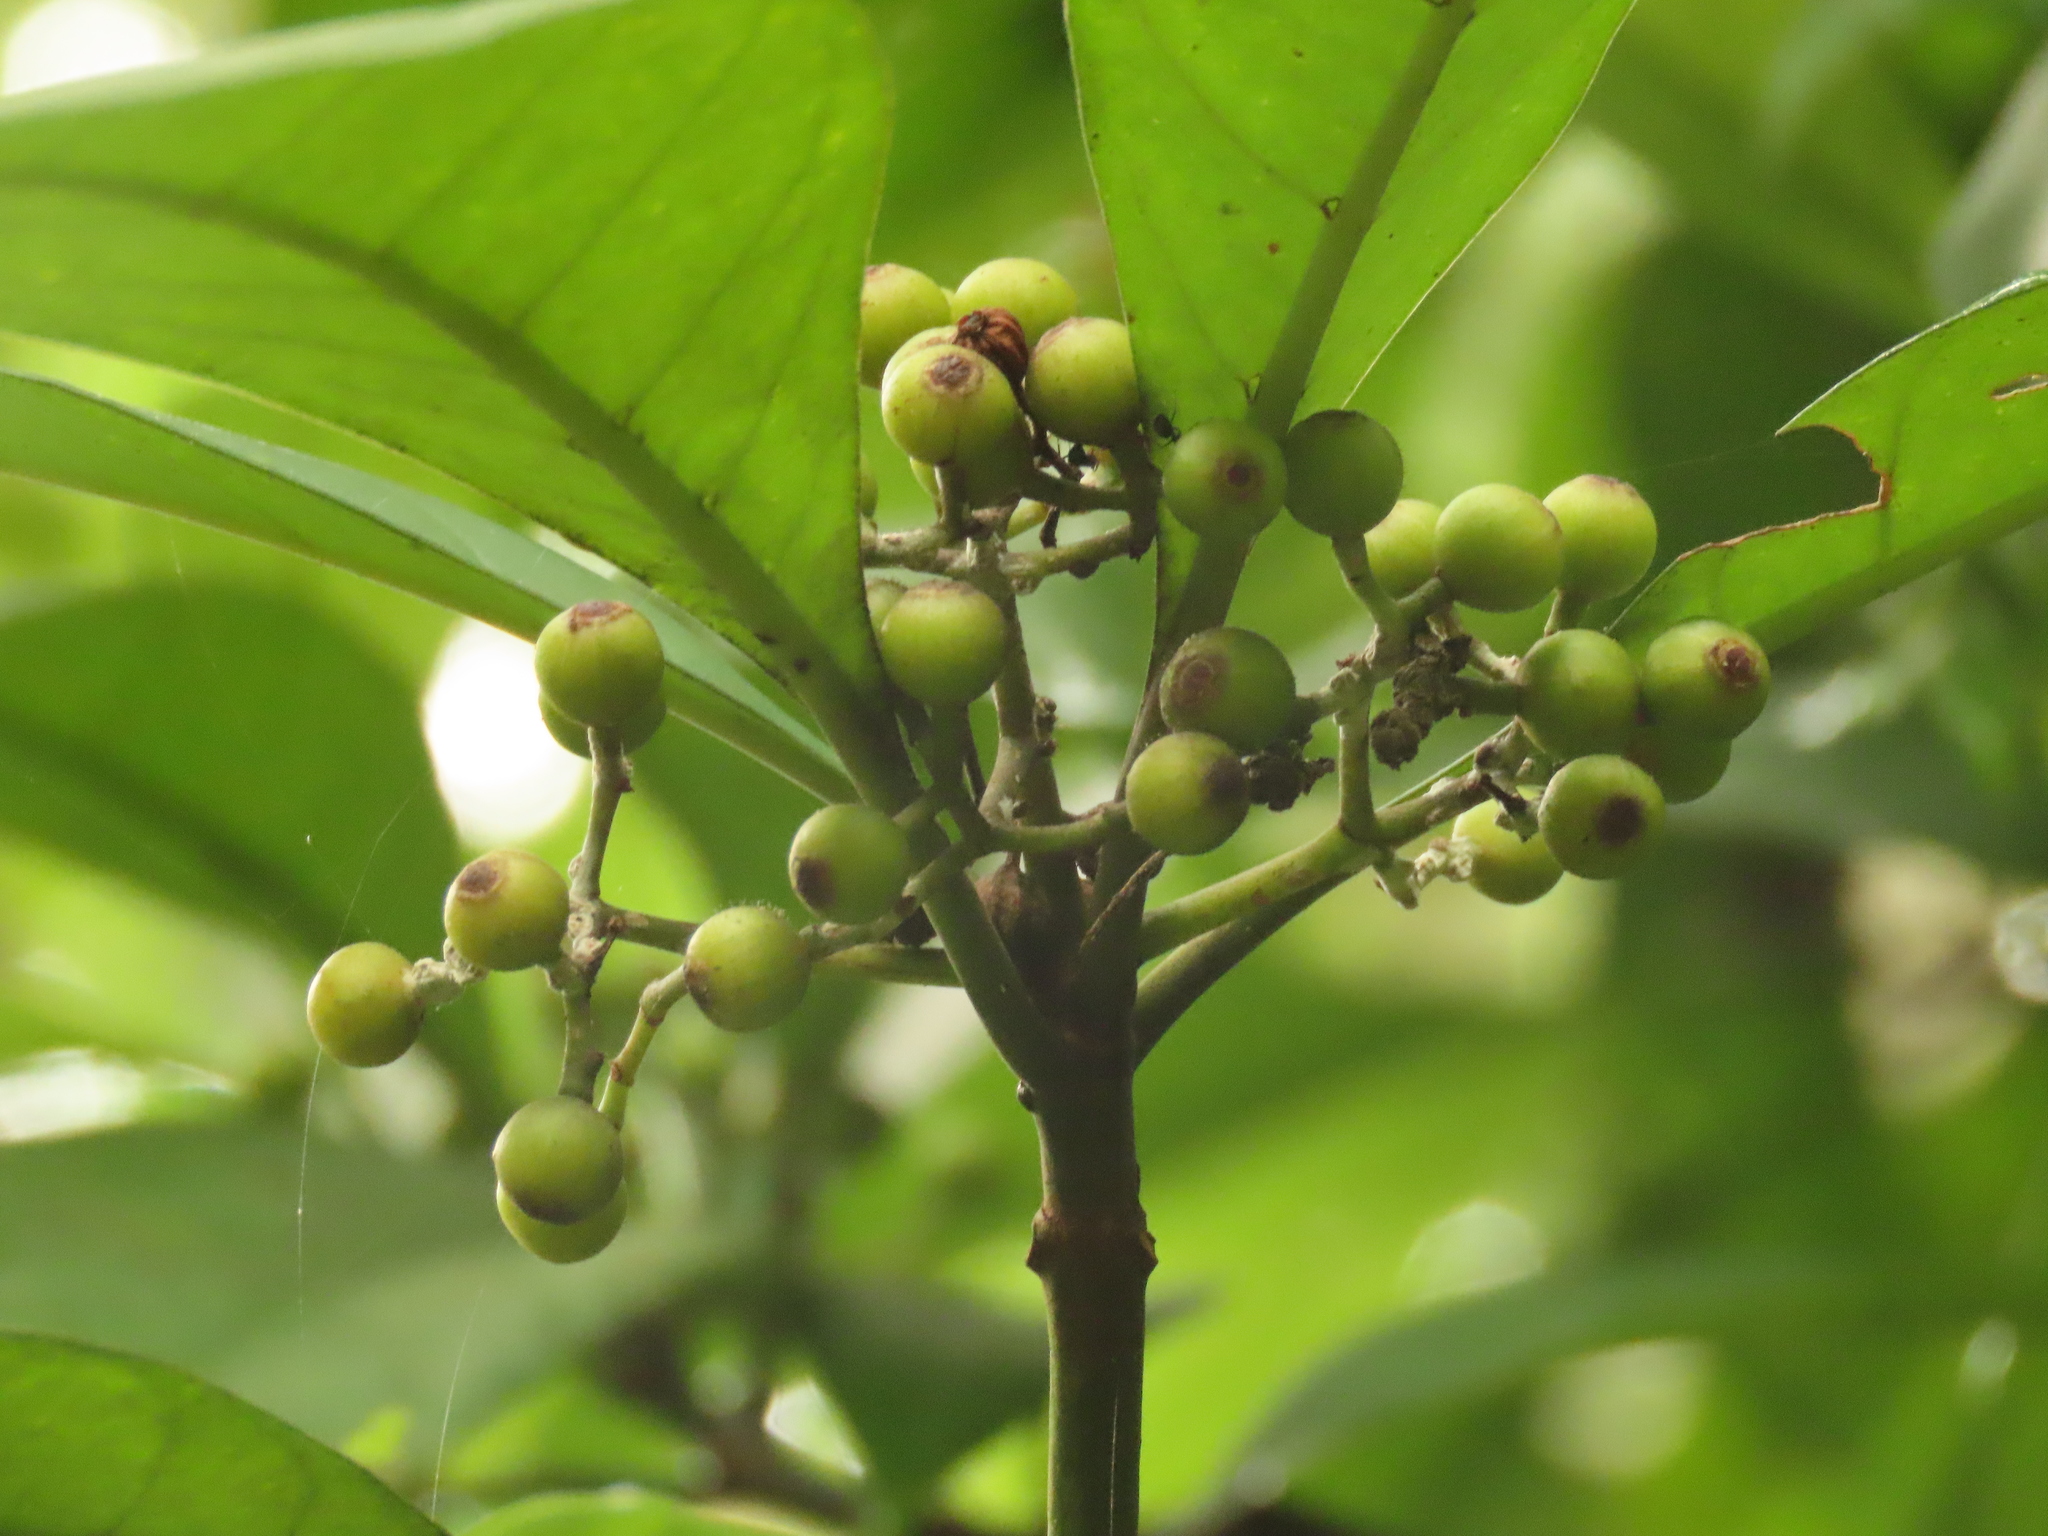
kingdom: Plantae
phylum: Tracheophyta
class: Magnoliopsida
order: Gentianales
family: Rubiaceae
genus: Psychotria
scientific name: Psychotria asiatica
